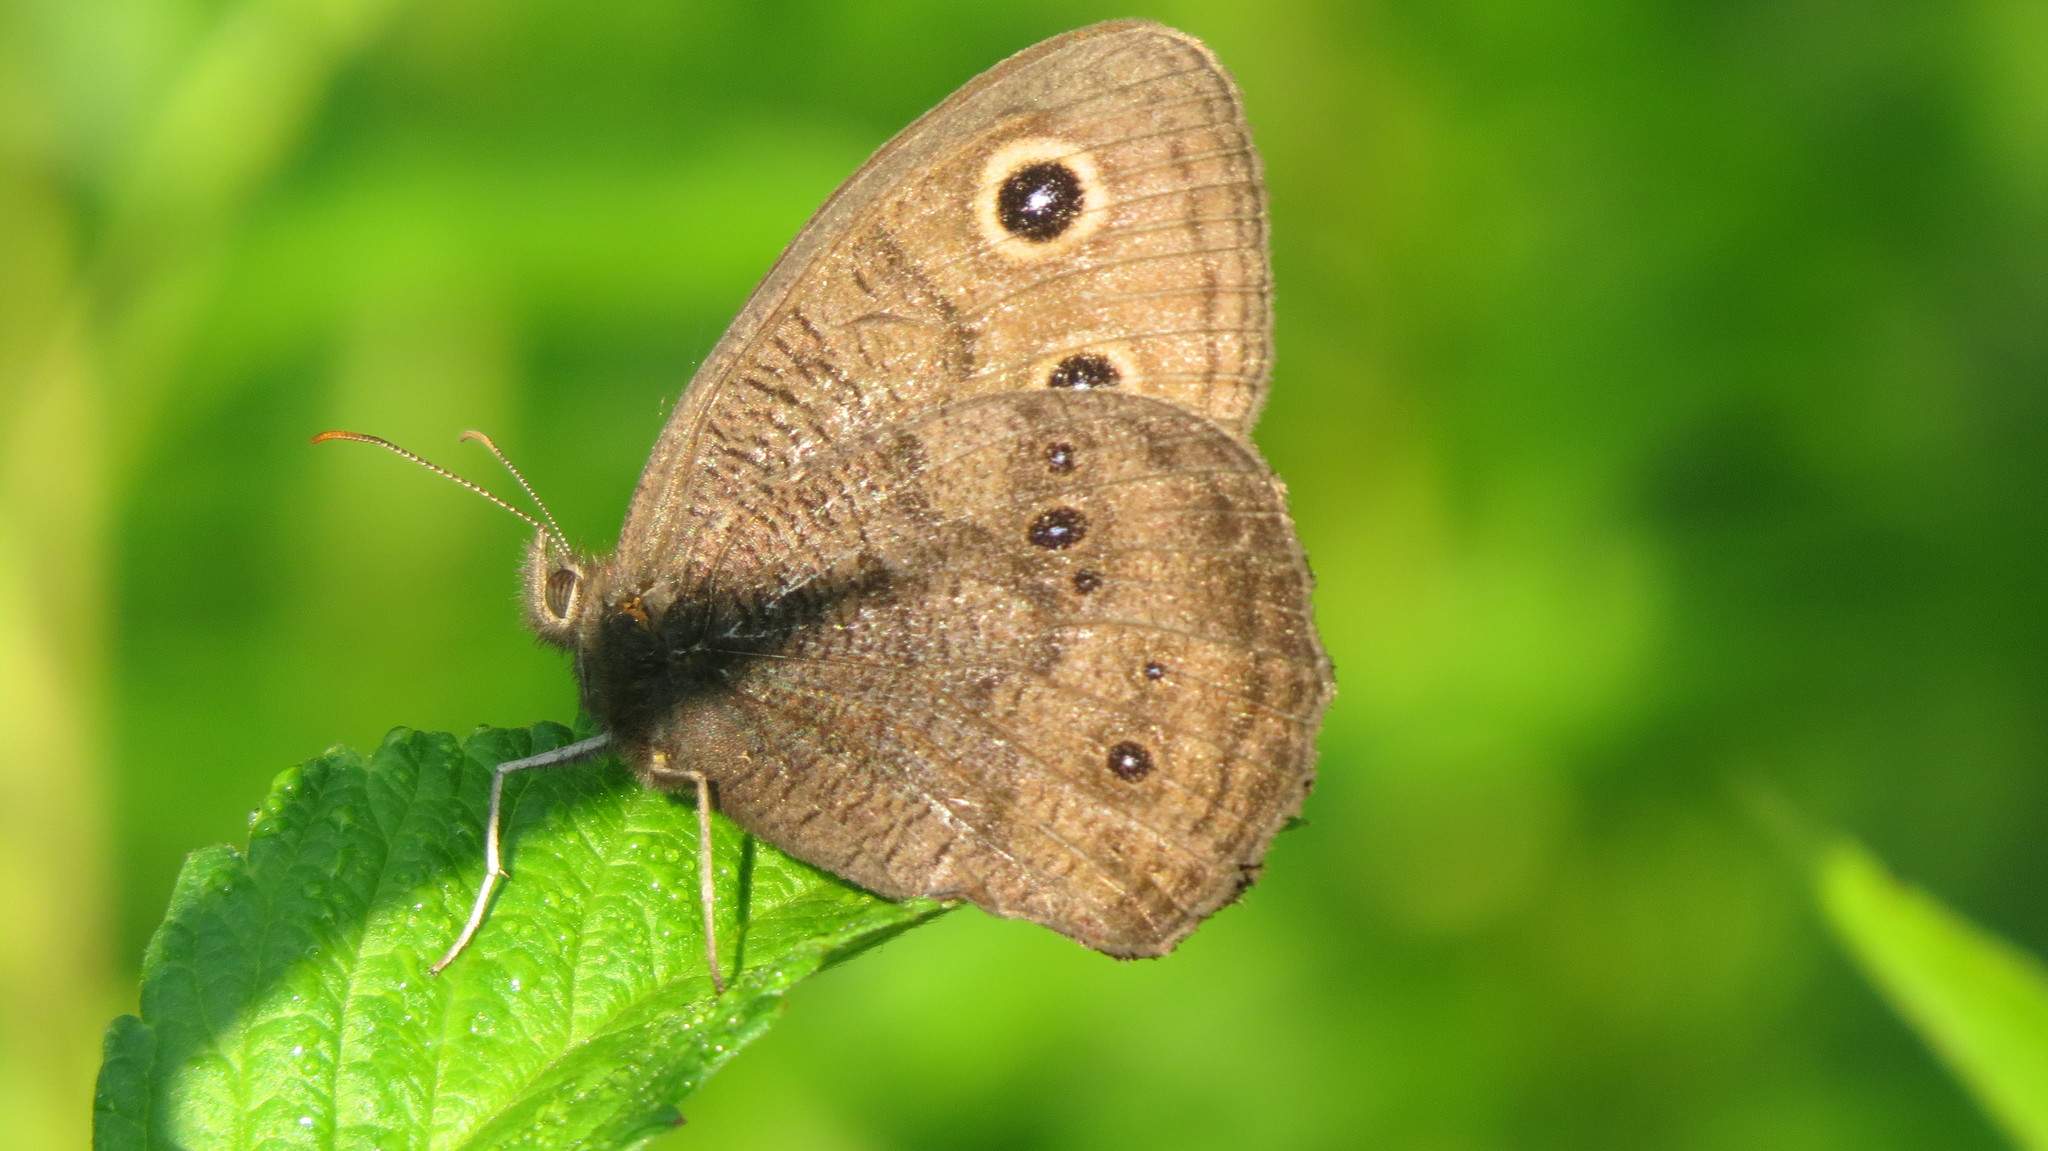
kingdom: Animalia
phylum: Arthropoda
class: Insecta
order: Lepidoptera
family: Nymphalidae
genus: Cercyonis
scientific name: Cercyonis pegala
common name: Common wood-nymph
